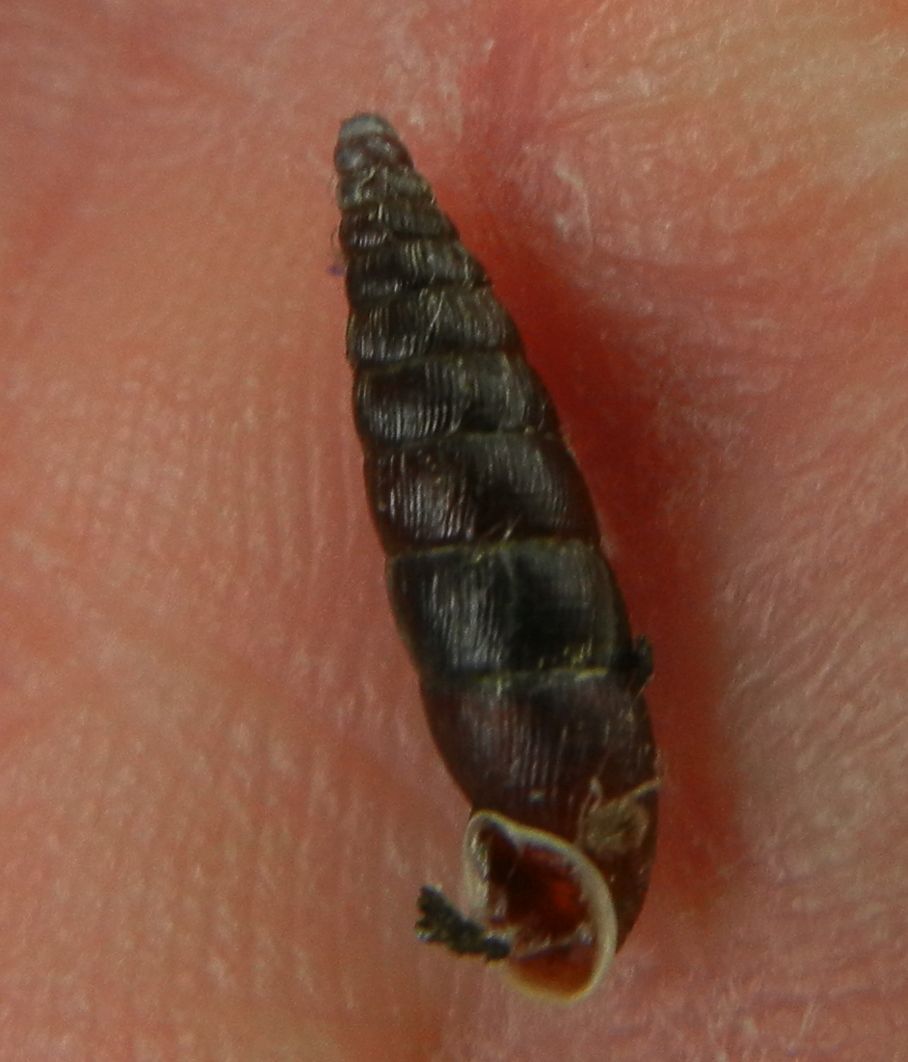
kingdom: Animalia
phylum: Mollusca
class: Gastropoda
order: Stylommatophora
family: Clausiliidae
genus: Clausilia
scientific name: Clausilia bidentata
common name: Two-toothed door snail
